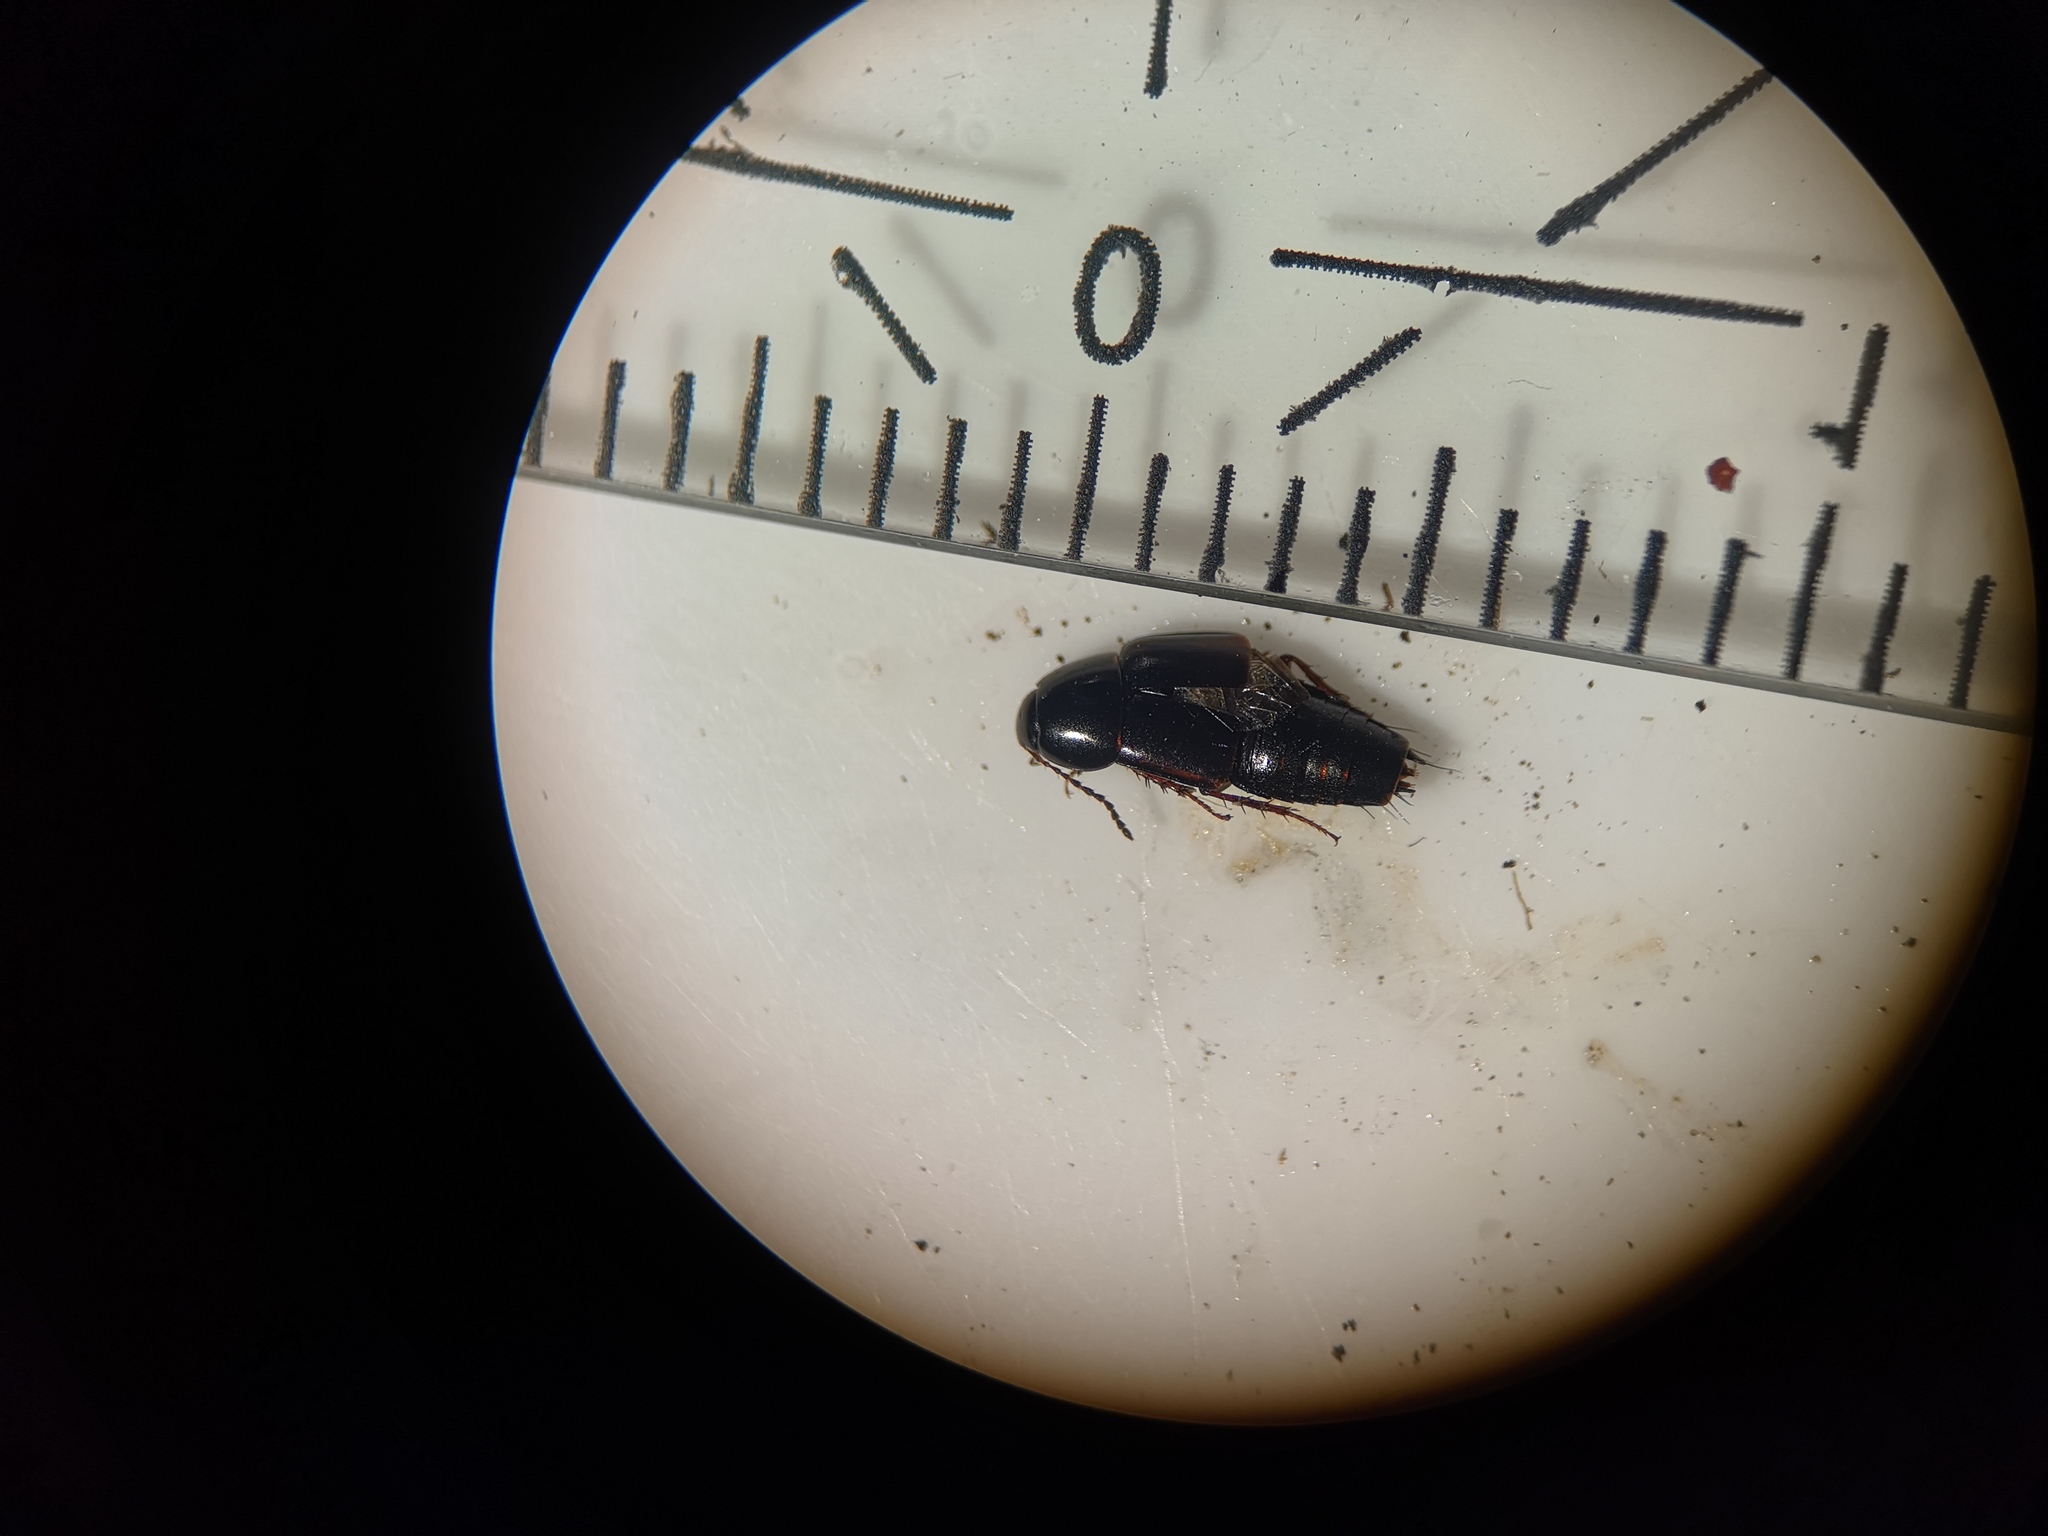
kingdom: Animalia
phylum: Arthropoda
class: Insecta
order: Coleoptera
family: Staphylinidae
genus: Tachinus
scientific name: Tachinus rufipes
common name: Rove beetle
